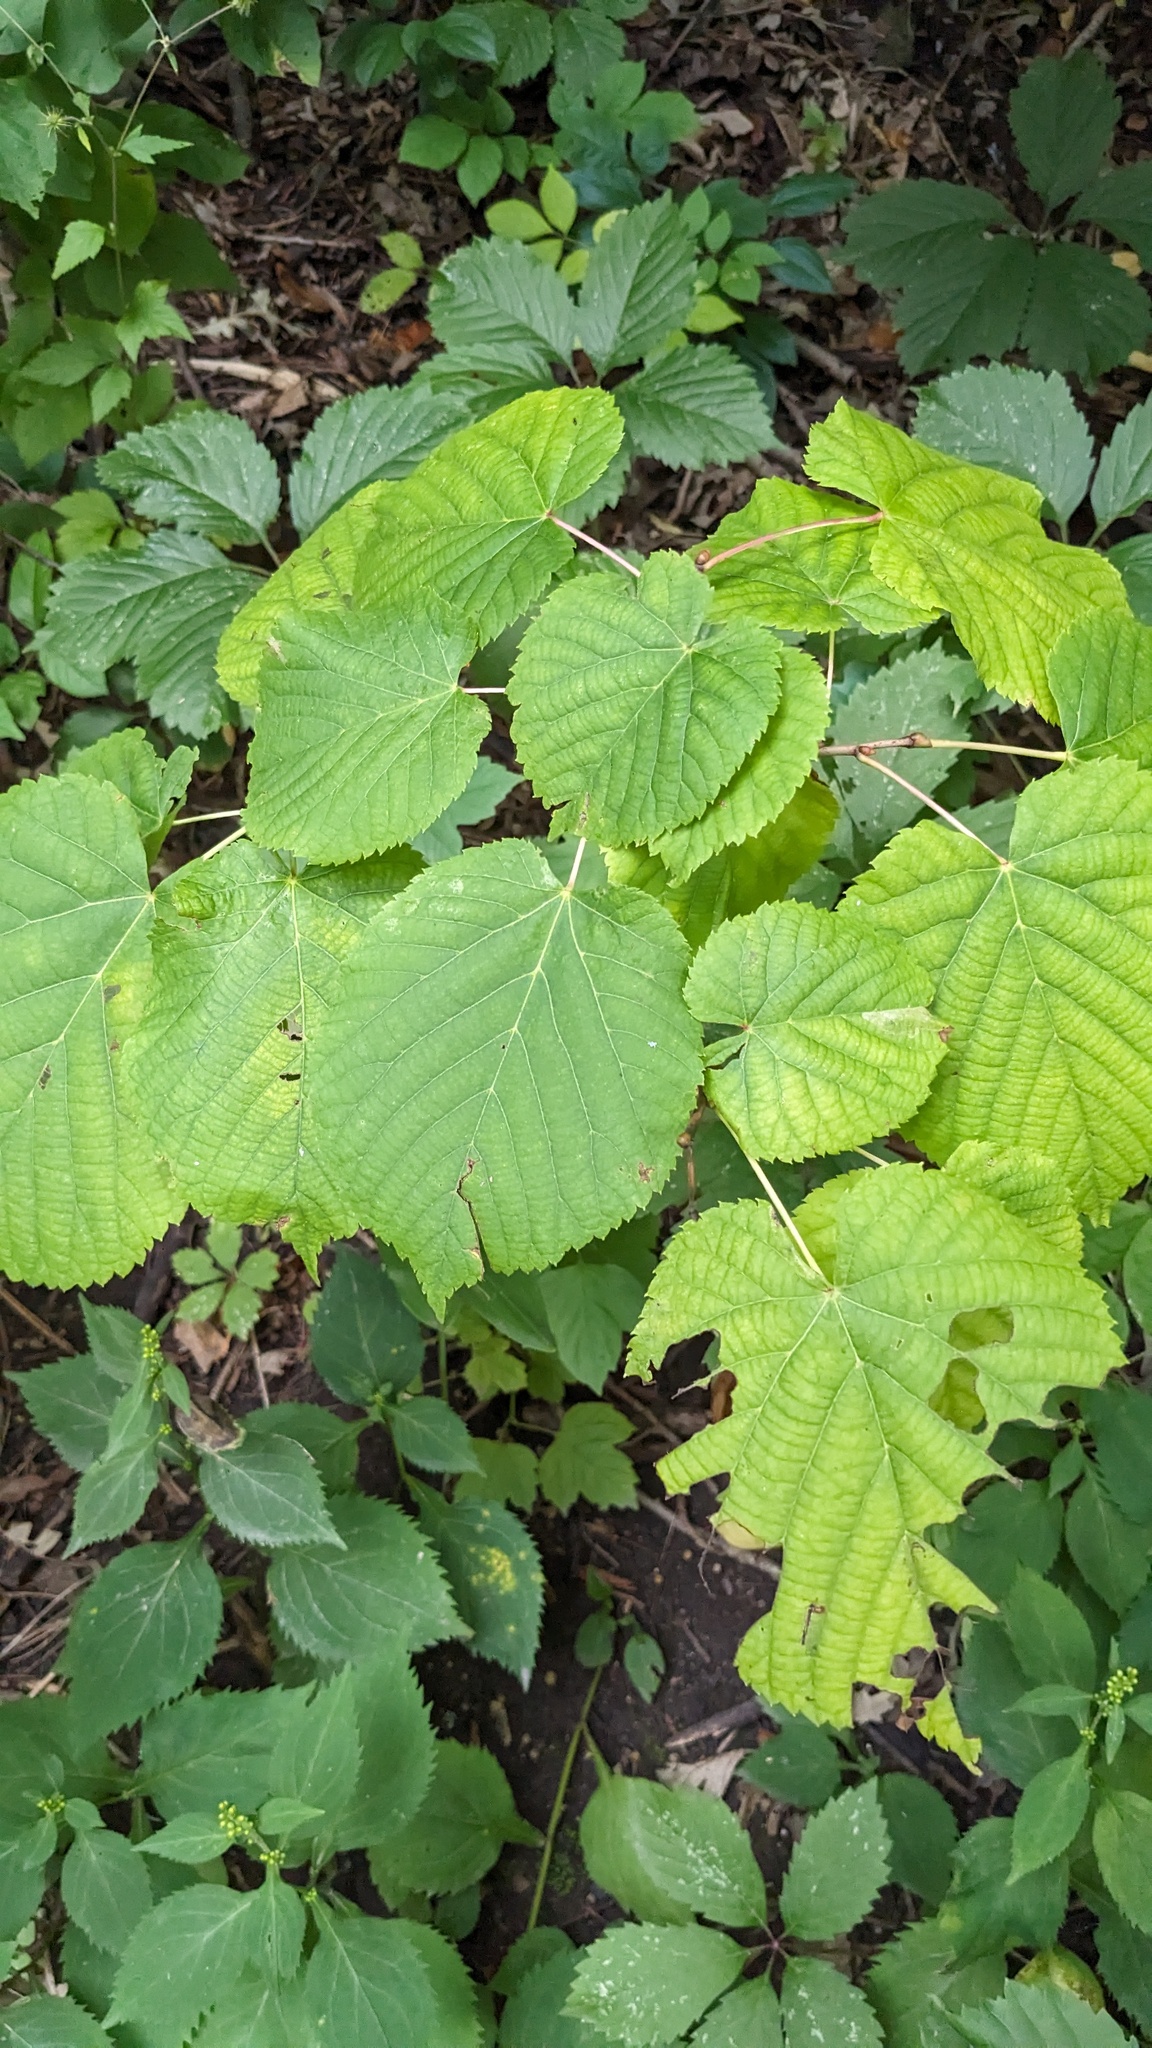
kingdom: Plantae
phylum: Tracheophyta
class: Magnoliopsida
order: Malvales
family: Malvaceae
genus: Tilia
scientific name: Tilia americana
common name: Basswood
